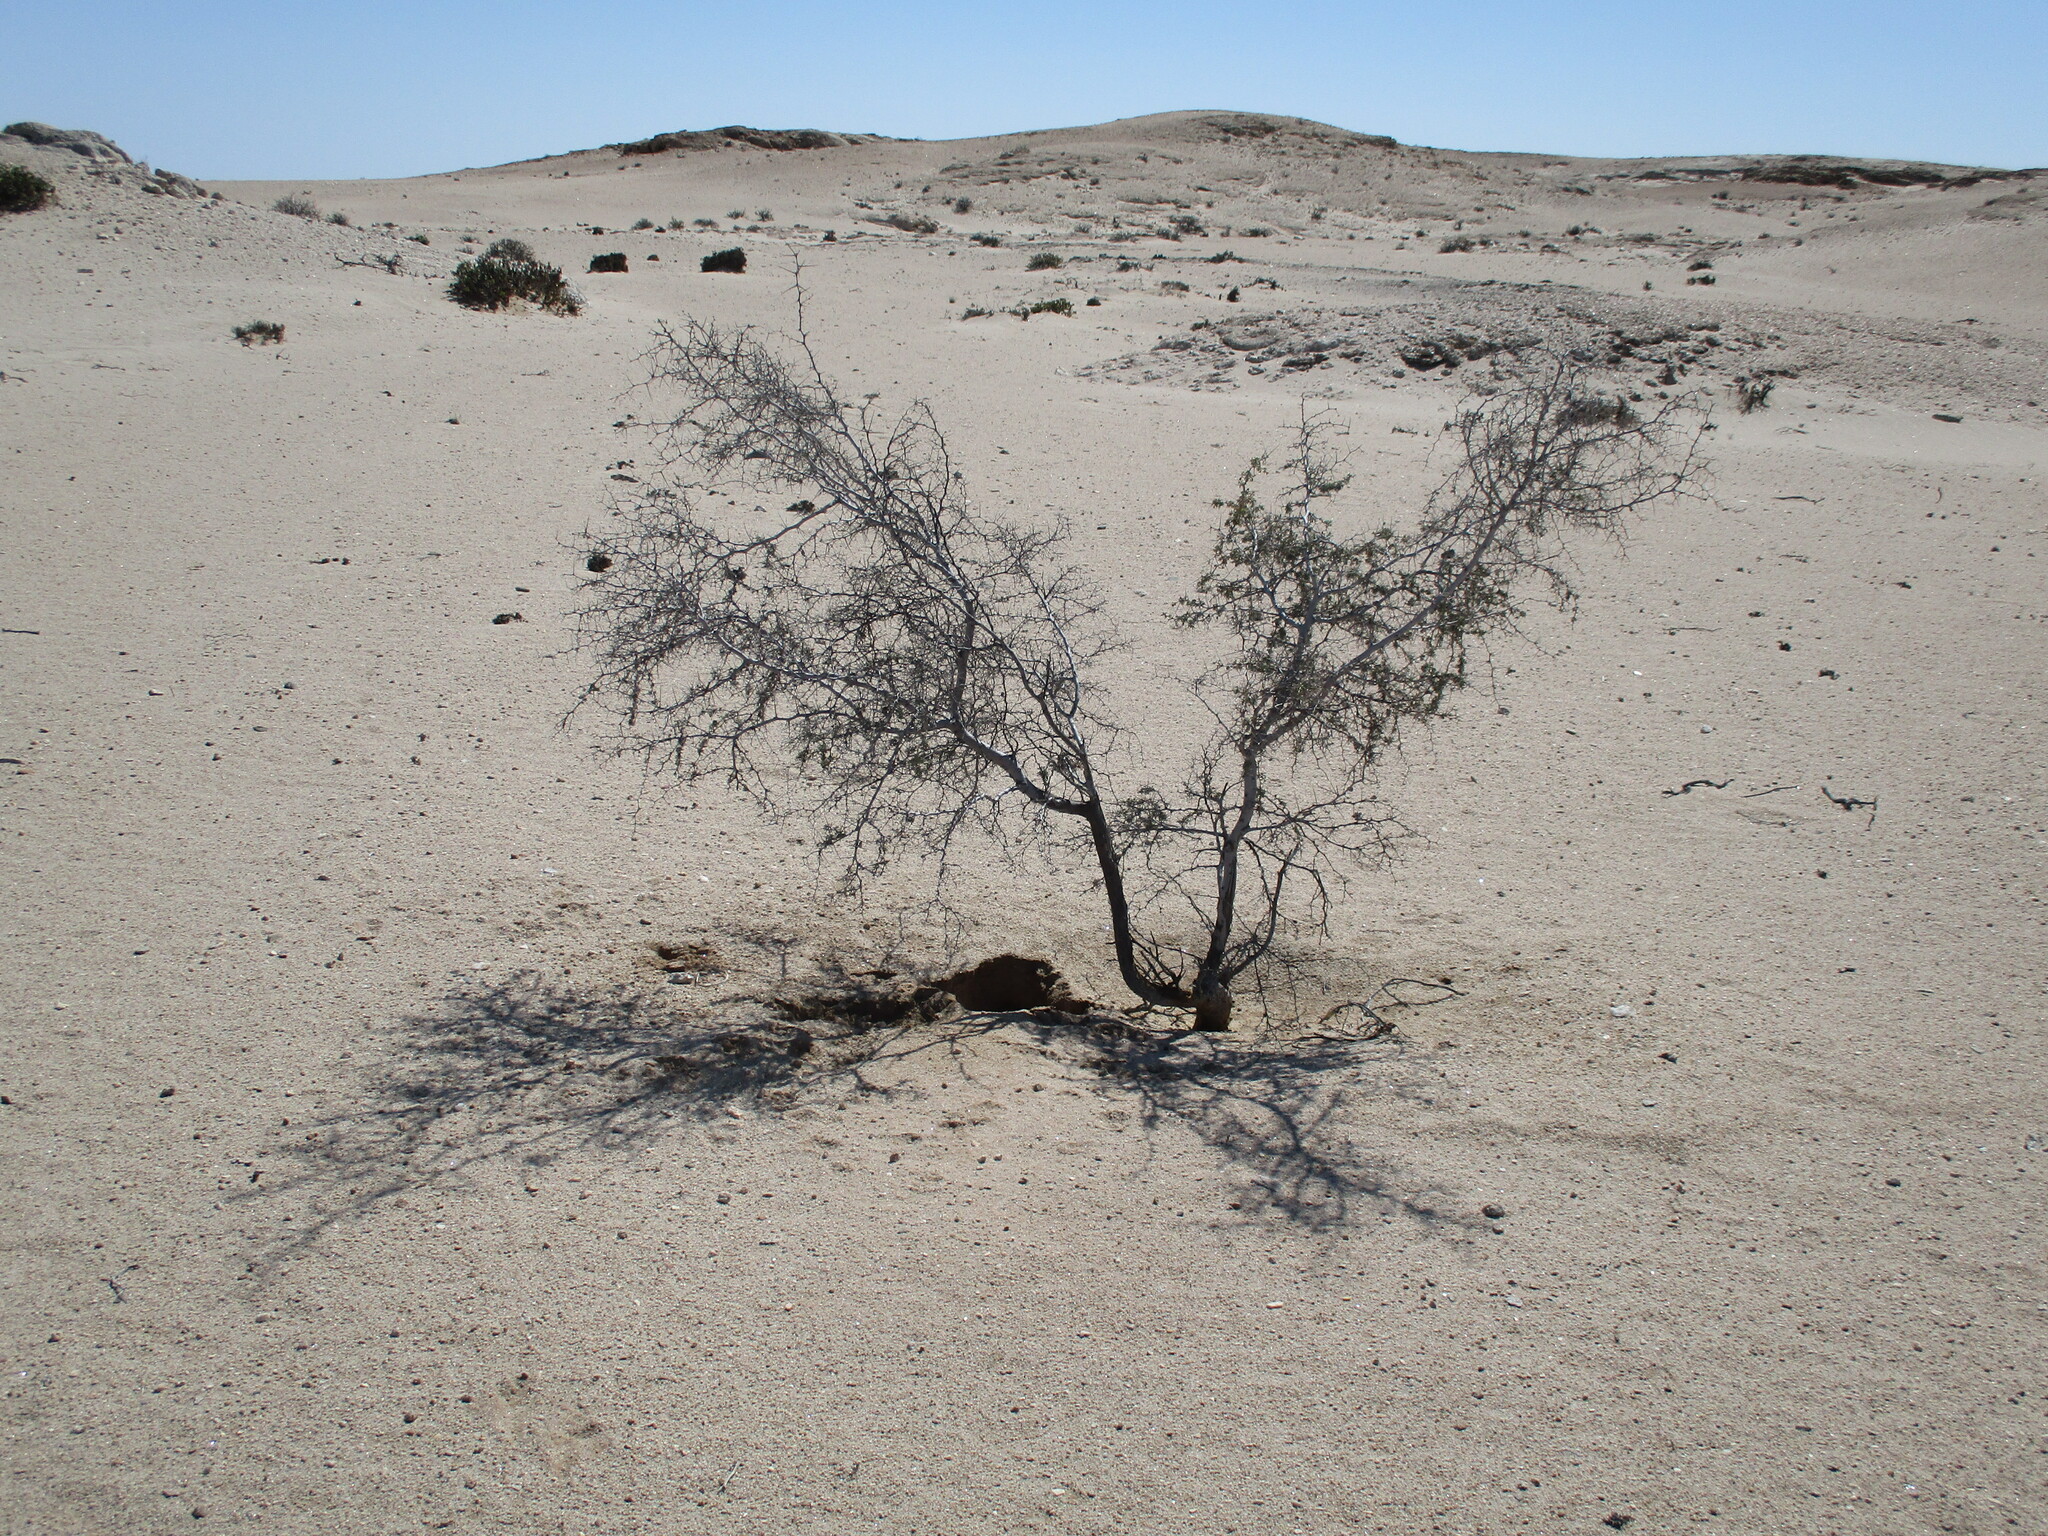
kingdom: Plantae
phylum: Tracheophyta
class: Magnoliopsida
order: Fabales
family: Fabaceae
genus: Vachellia
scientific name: Vachellia erioloba
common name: Camel thorn
